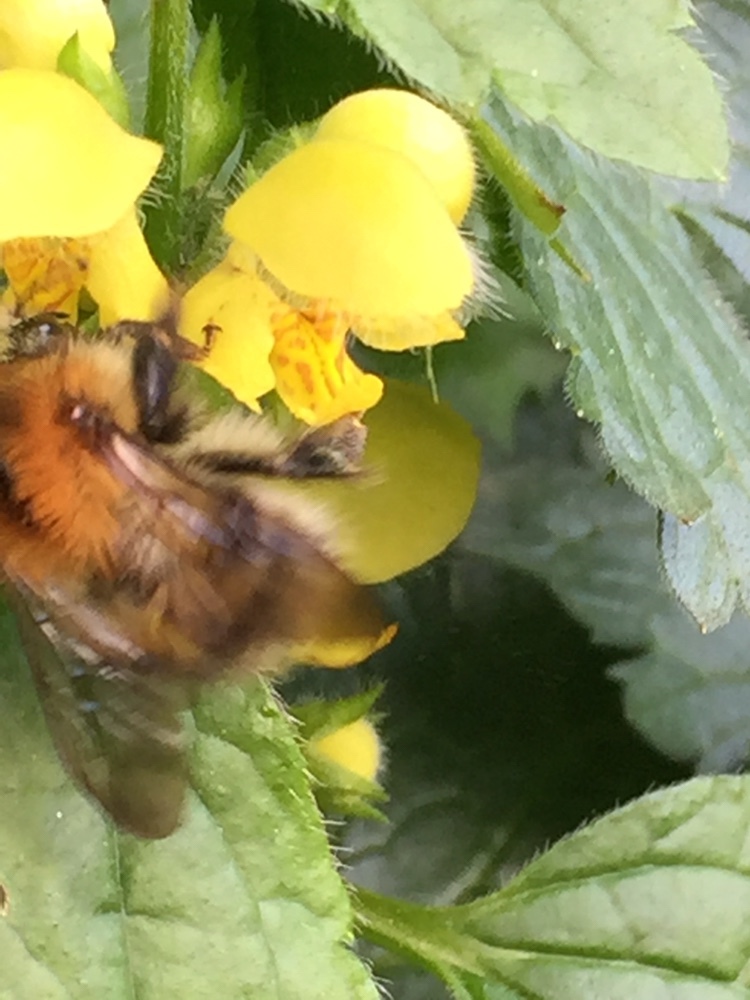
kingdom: Animalia
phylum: Arthropoda
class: Insecta
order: Hymenoptera
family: Apidae
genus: Bombus
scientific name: Bombus pascuorum
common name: Common carder bee
